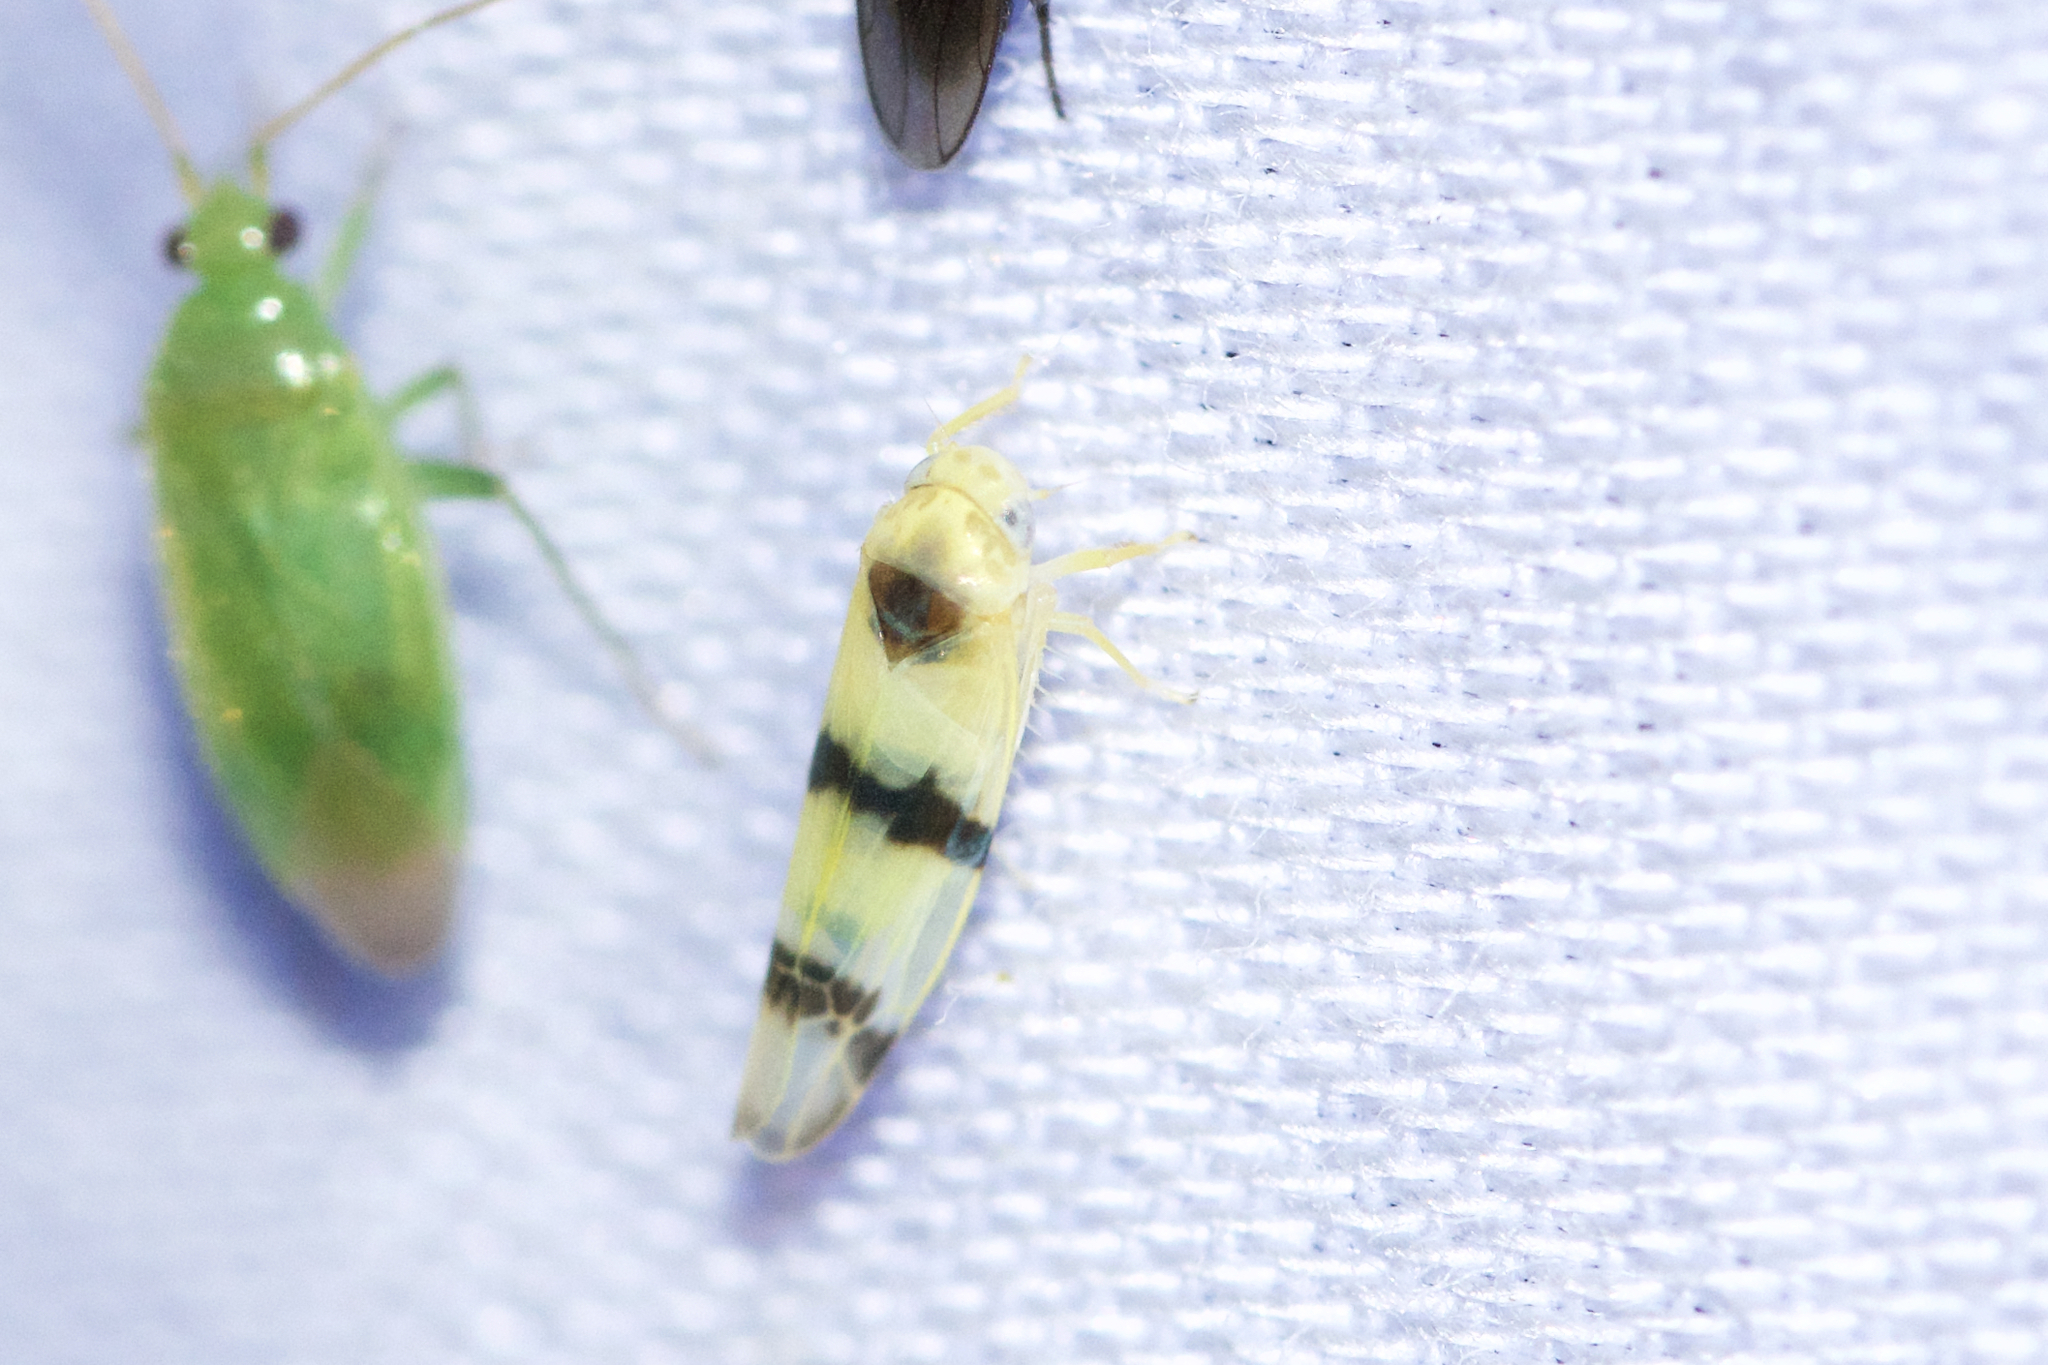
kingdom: Animalia
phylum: Arthropoda
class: Insecta
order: Hemiptera
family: Cicadellidae
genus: Empoa
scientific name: Empoa gillettei
